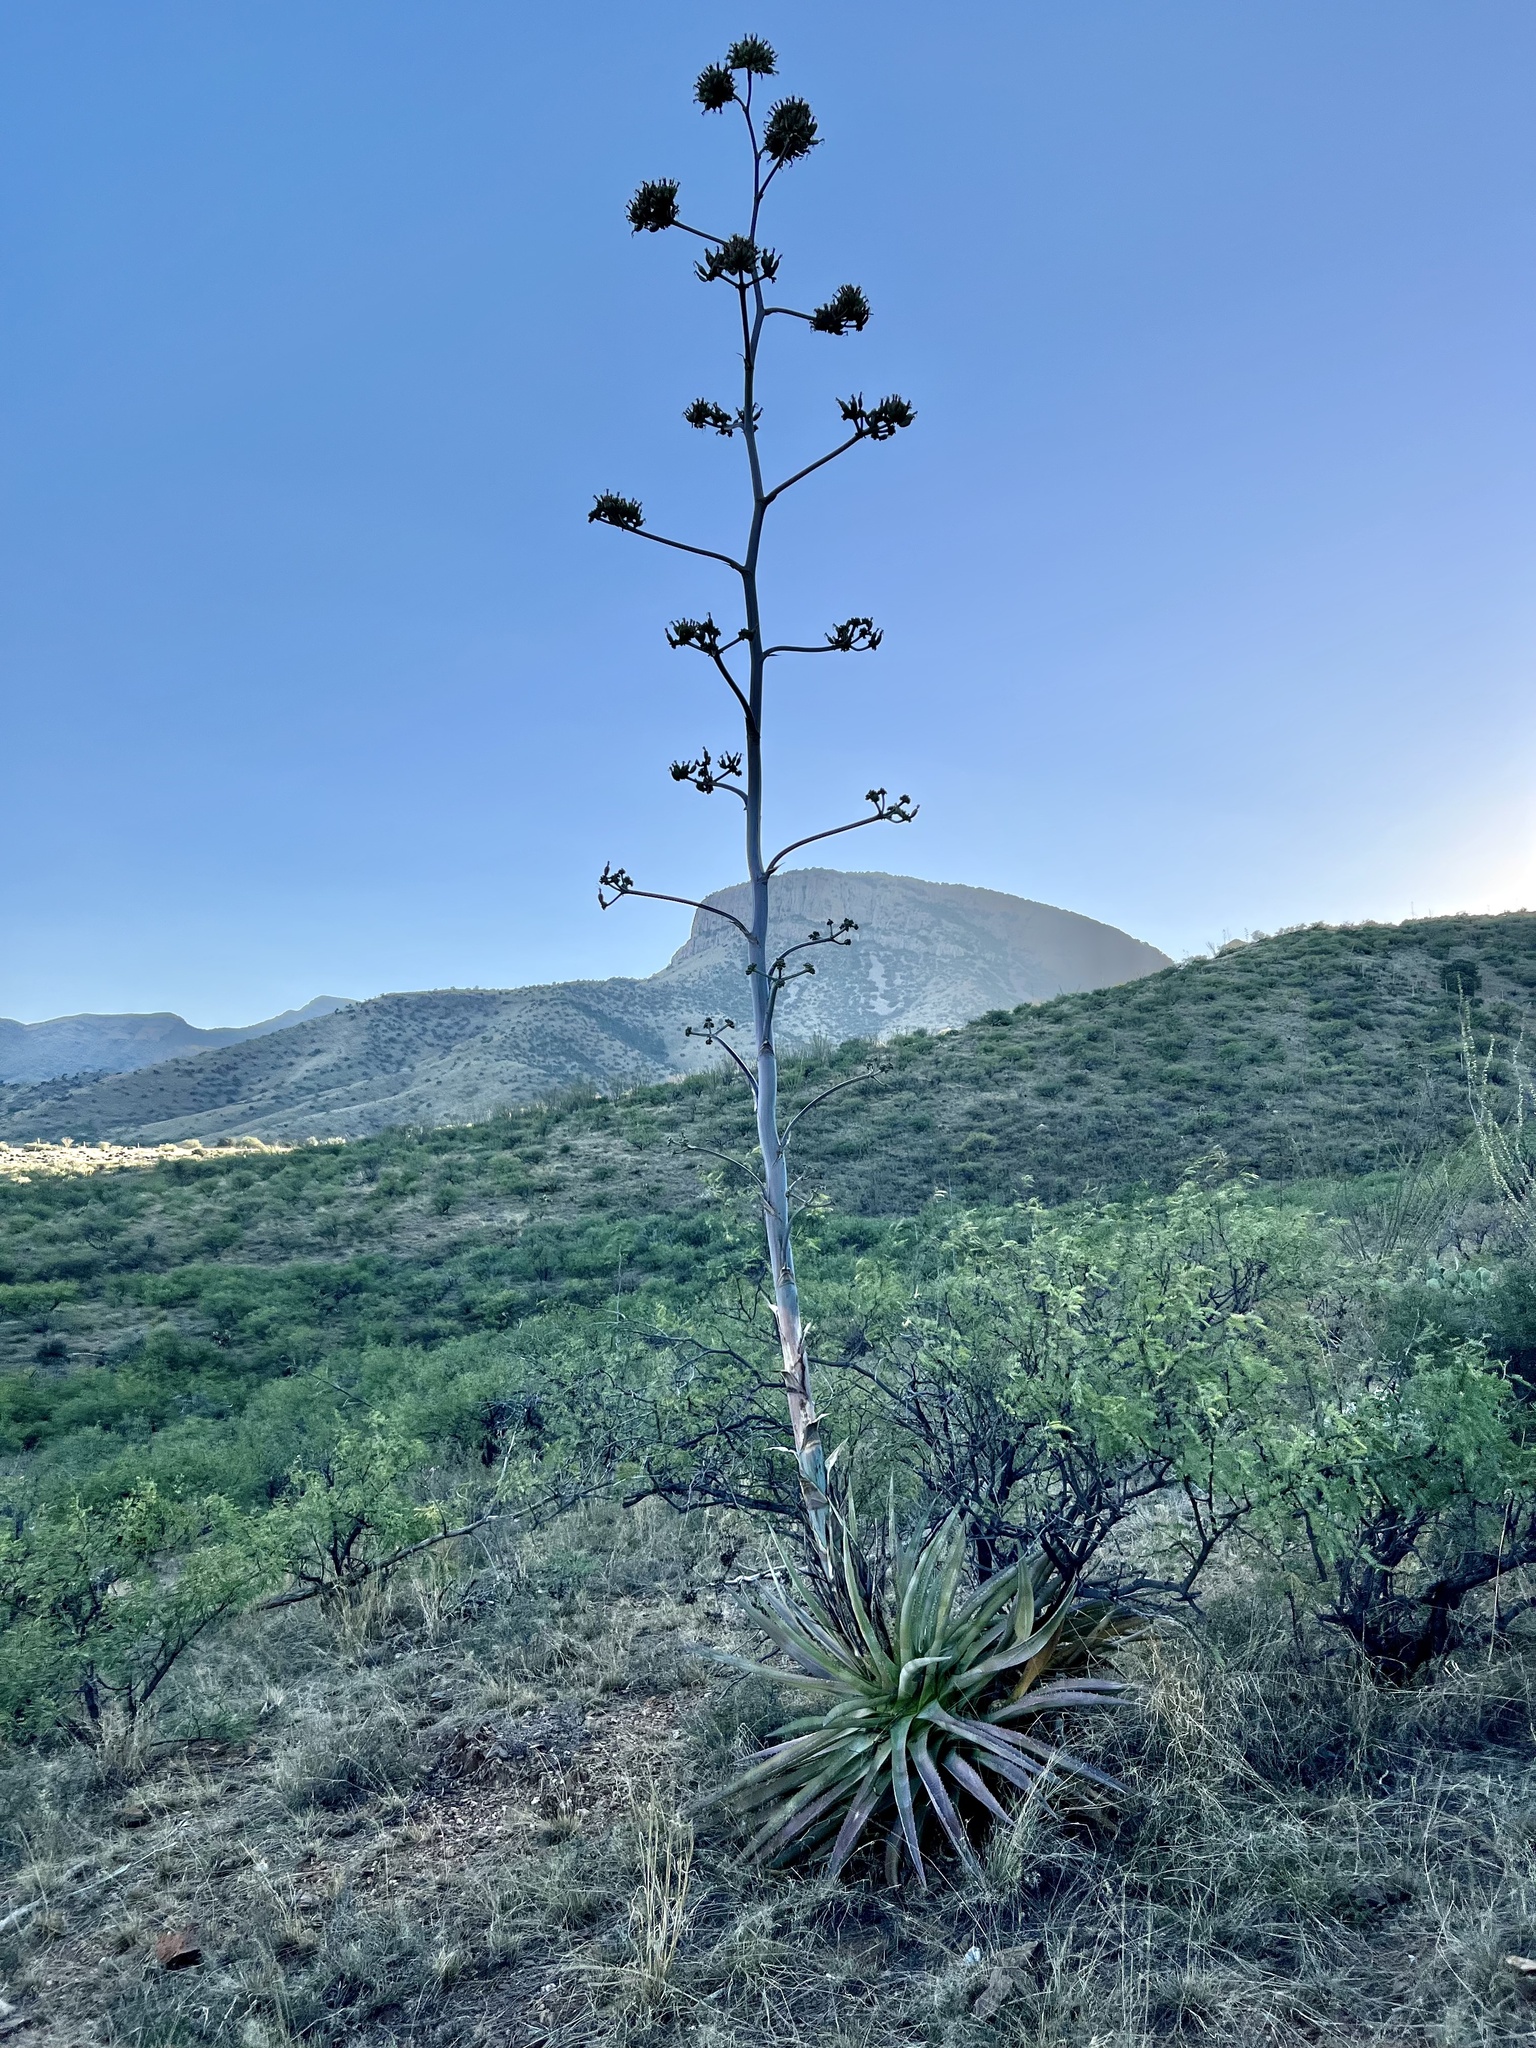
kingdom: Plantae
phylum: Tracheophyta
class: Liliopsida
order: Asparagales
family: Asparagaceae
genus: Agave
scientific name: Agave palmeri
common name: Palmer agave
